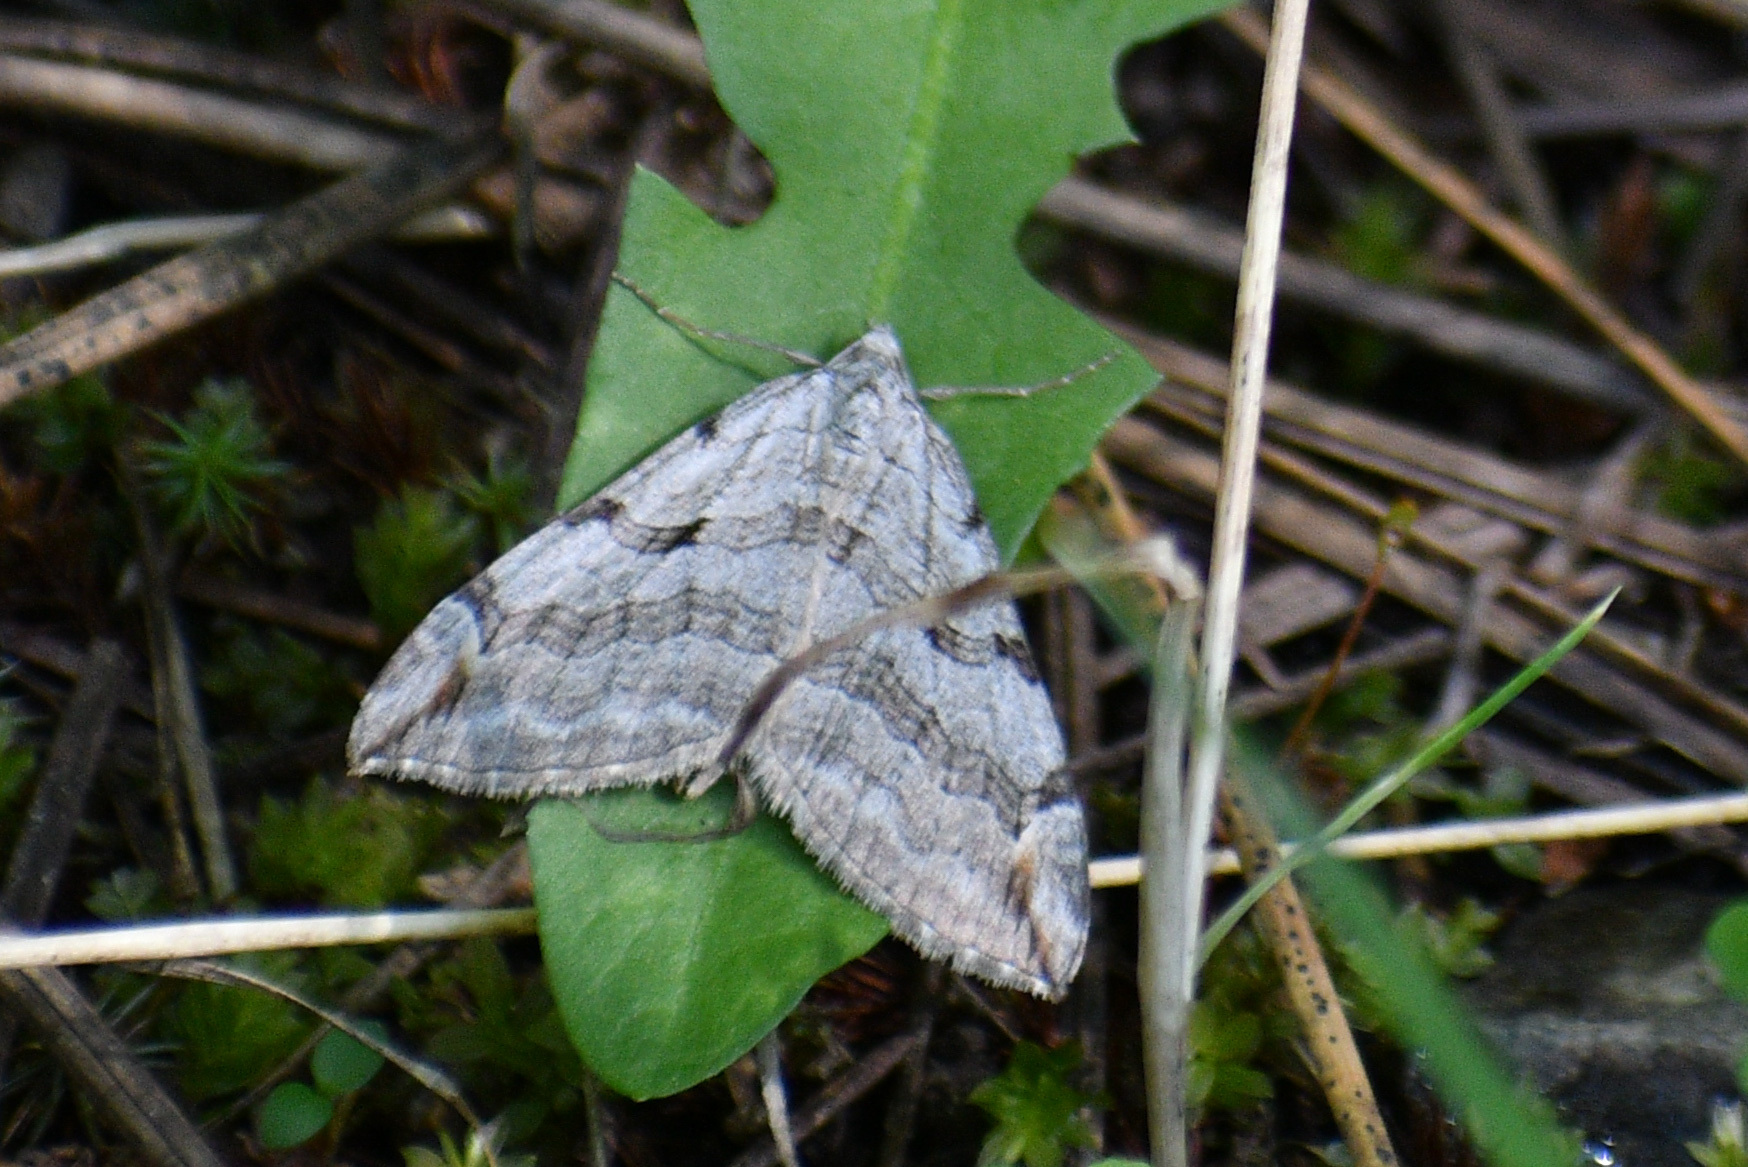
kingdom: Animalia
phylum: Arthropoda
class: Insecta
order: Lepidoptera
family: Geometridae
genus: Aplocera
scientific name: Aplocera plagiata
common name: Treble-bar
